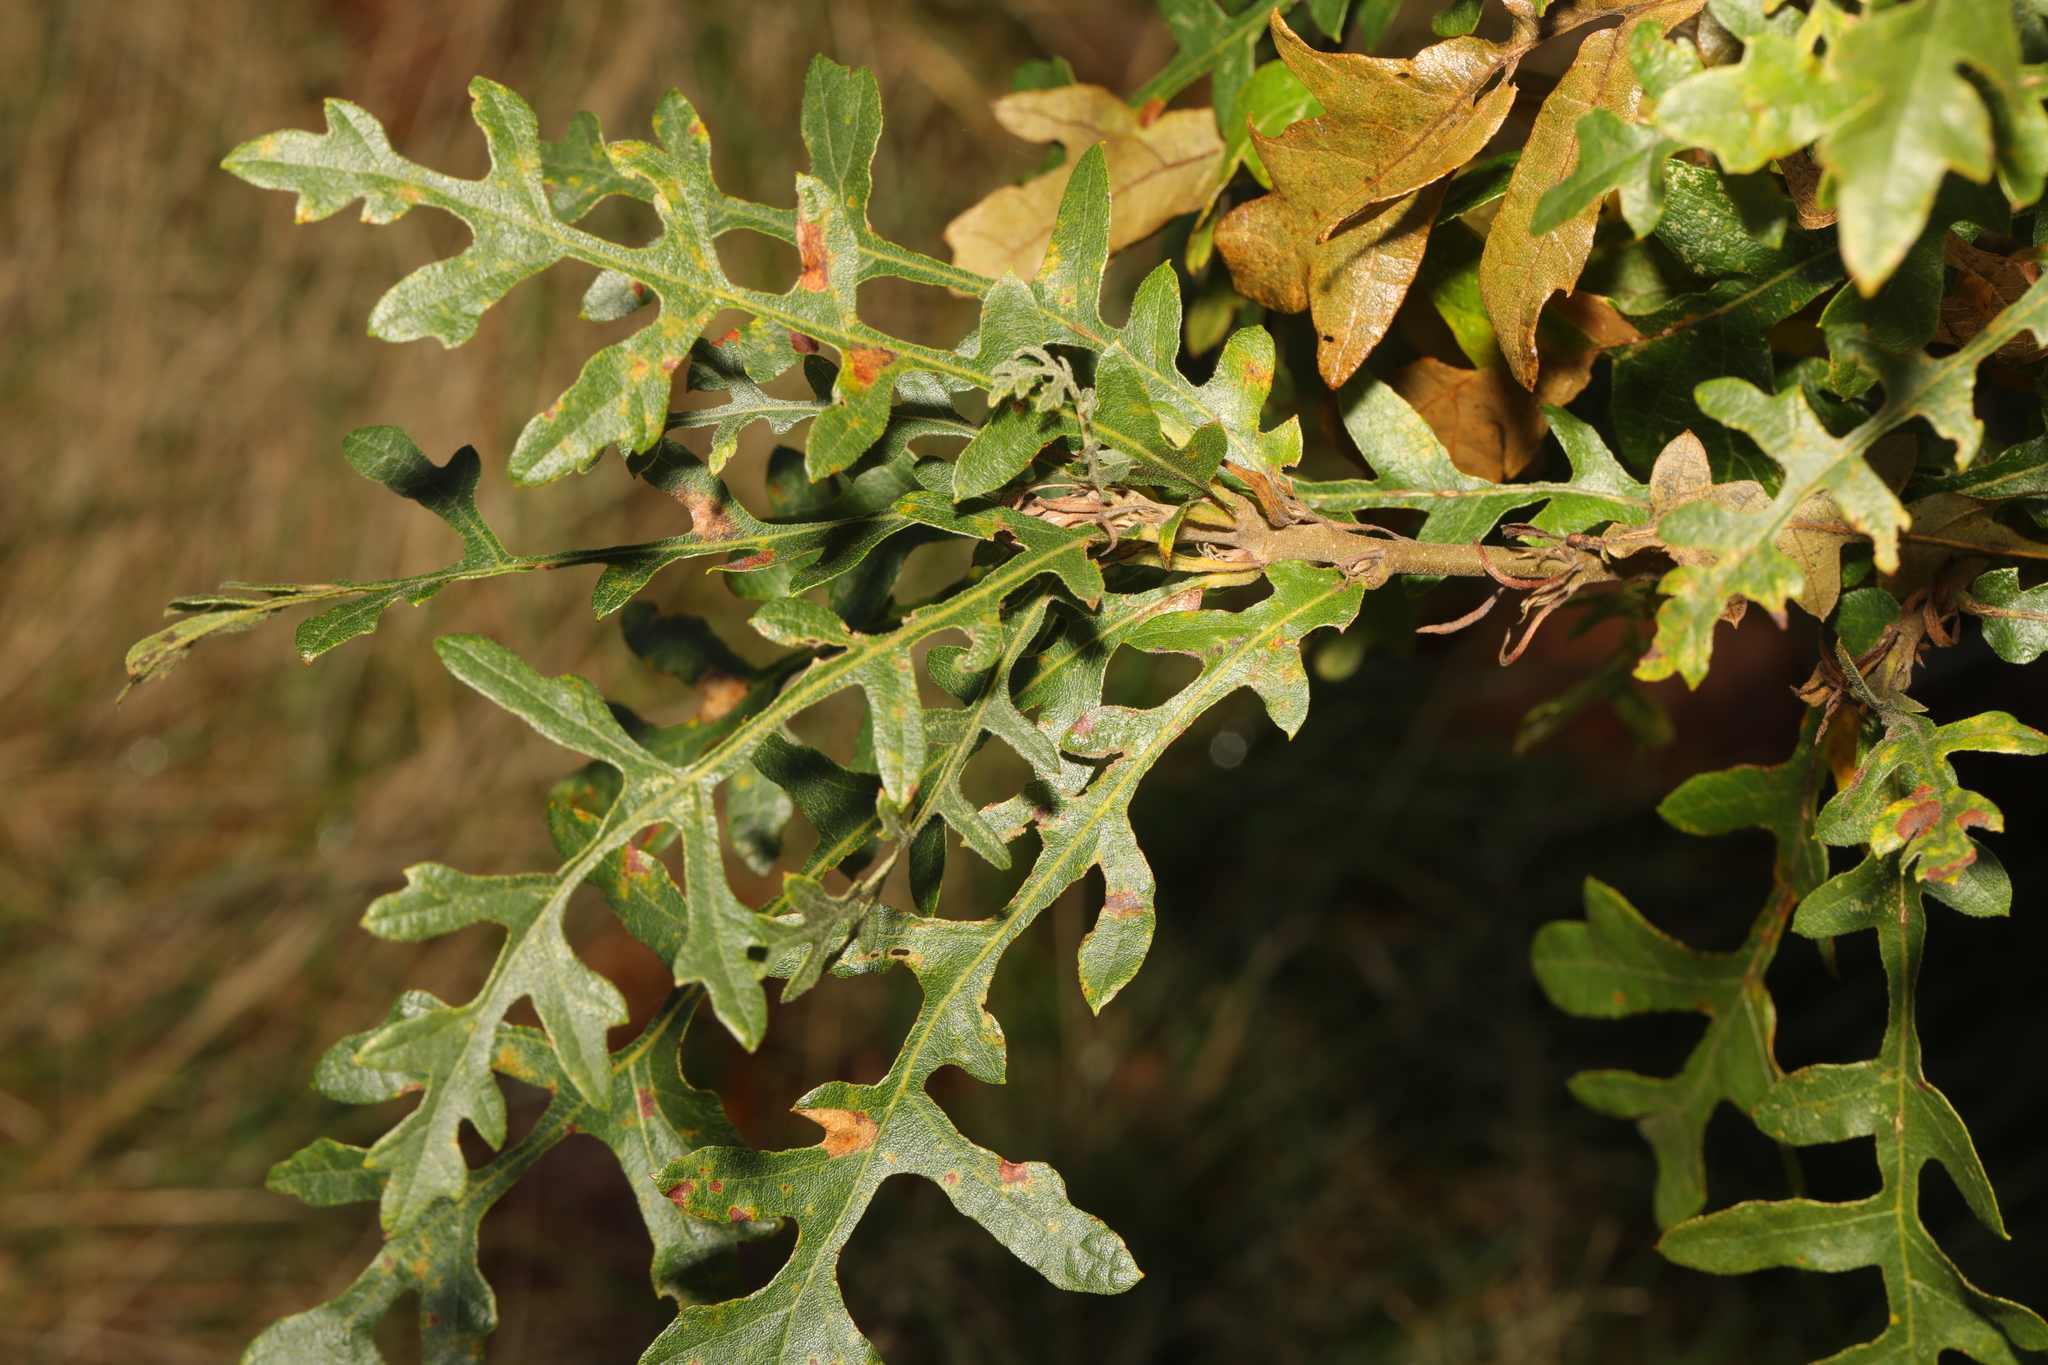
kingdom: Plantae
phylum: Tracheophyta
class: Magnoliopsida
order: Fagales
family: Fagaceae
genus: Quercus
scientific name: Quercus cerris
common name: Turkey oak
